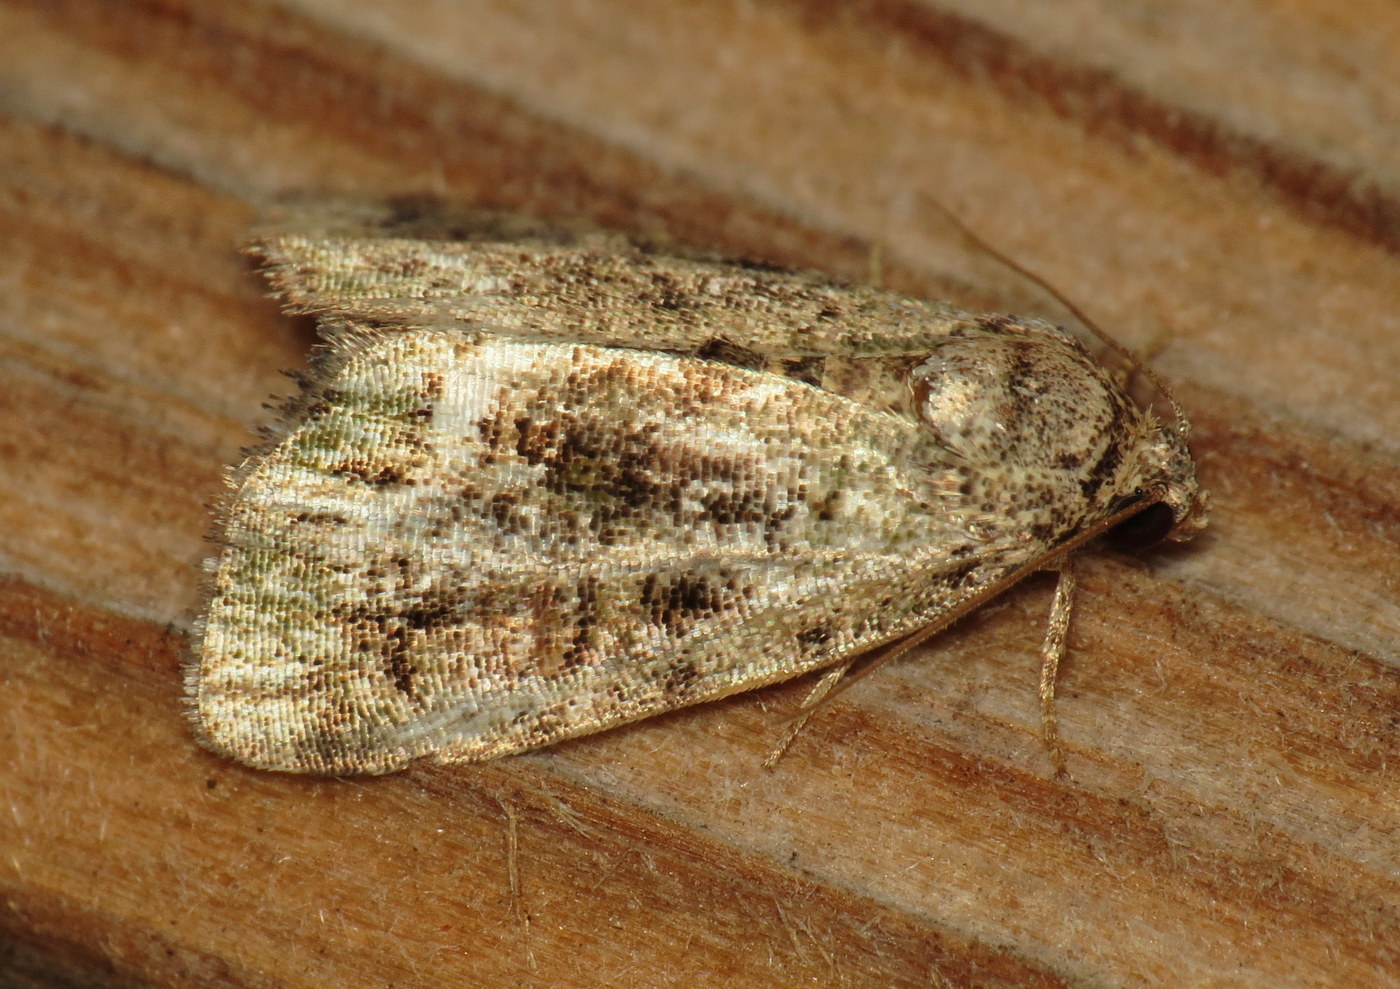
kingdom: Animalia
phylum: Arthropoda
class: Insecta
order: Lepidoptera
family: Noctuidae
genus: Lithacodia
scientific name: Lithacodia musta
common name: Small mossy glyph
